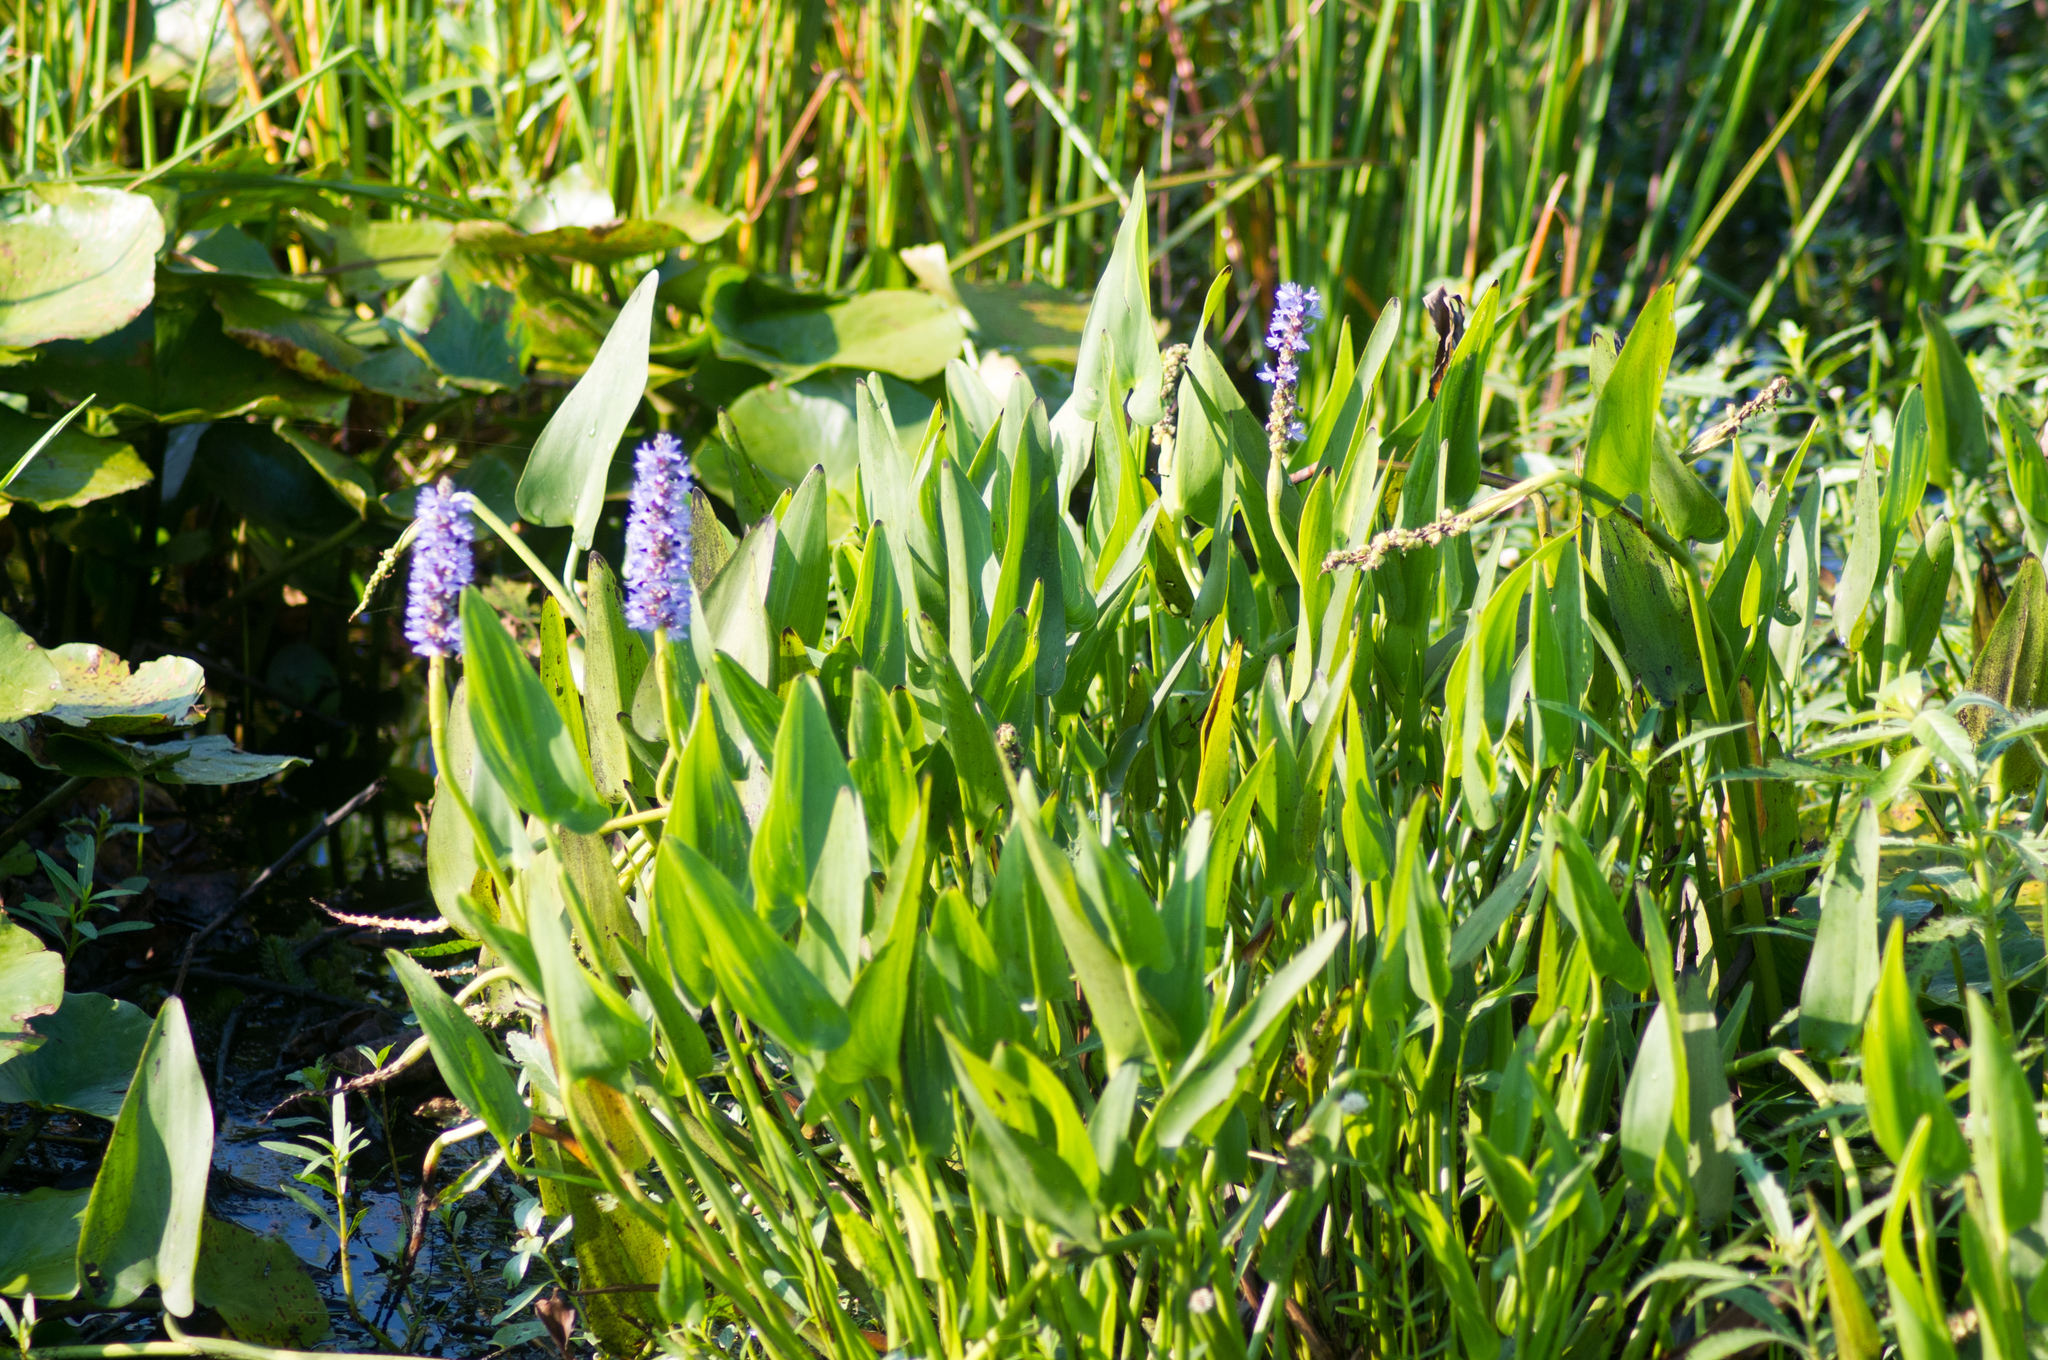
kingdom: Plantae
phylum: Tracheophyta
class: Liliopsida
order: Commelinales
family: Pontederiaceae
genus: Pontederia
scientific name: Pontederia cordata
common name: Pickerelweed
